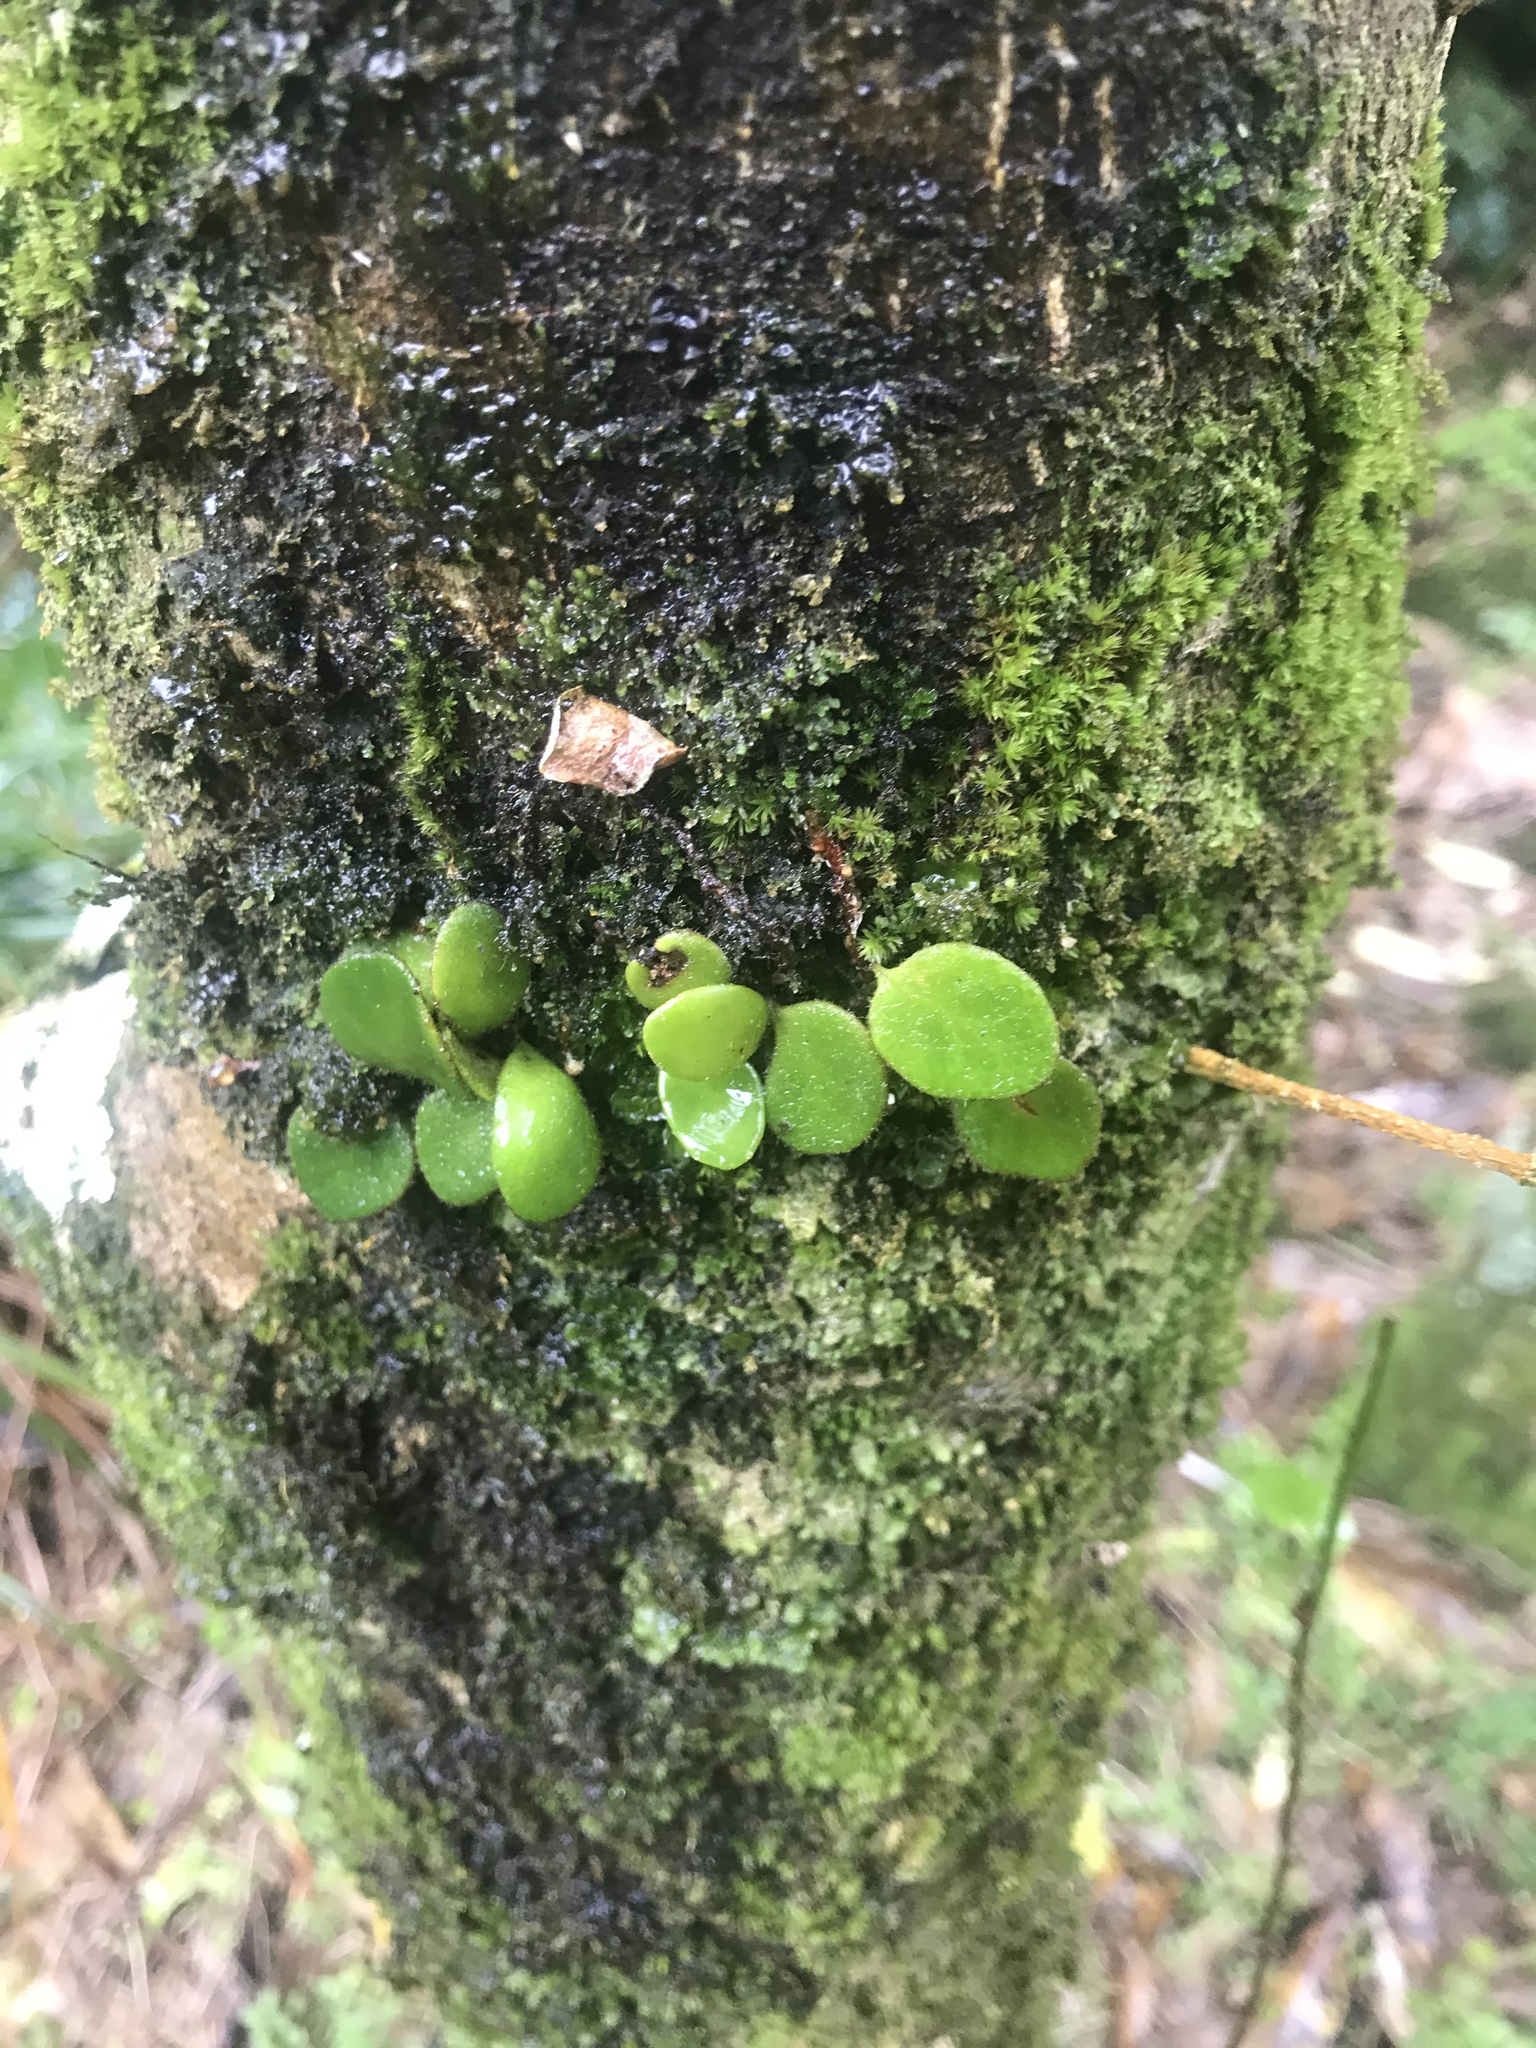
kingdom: Plantae
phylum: Tracheophyta
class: Polypodiopsida
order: Polypodiales
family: Polypodiaceae
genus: Pyrrosia
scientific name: Pyrrosia eleagnifolia
